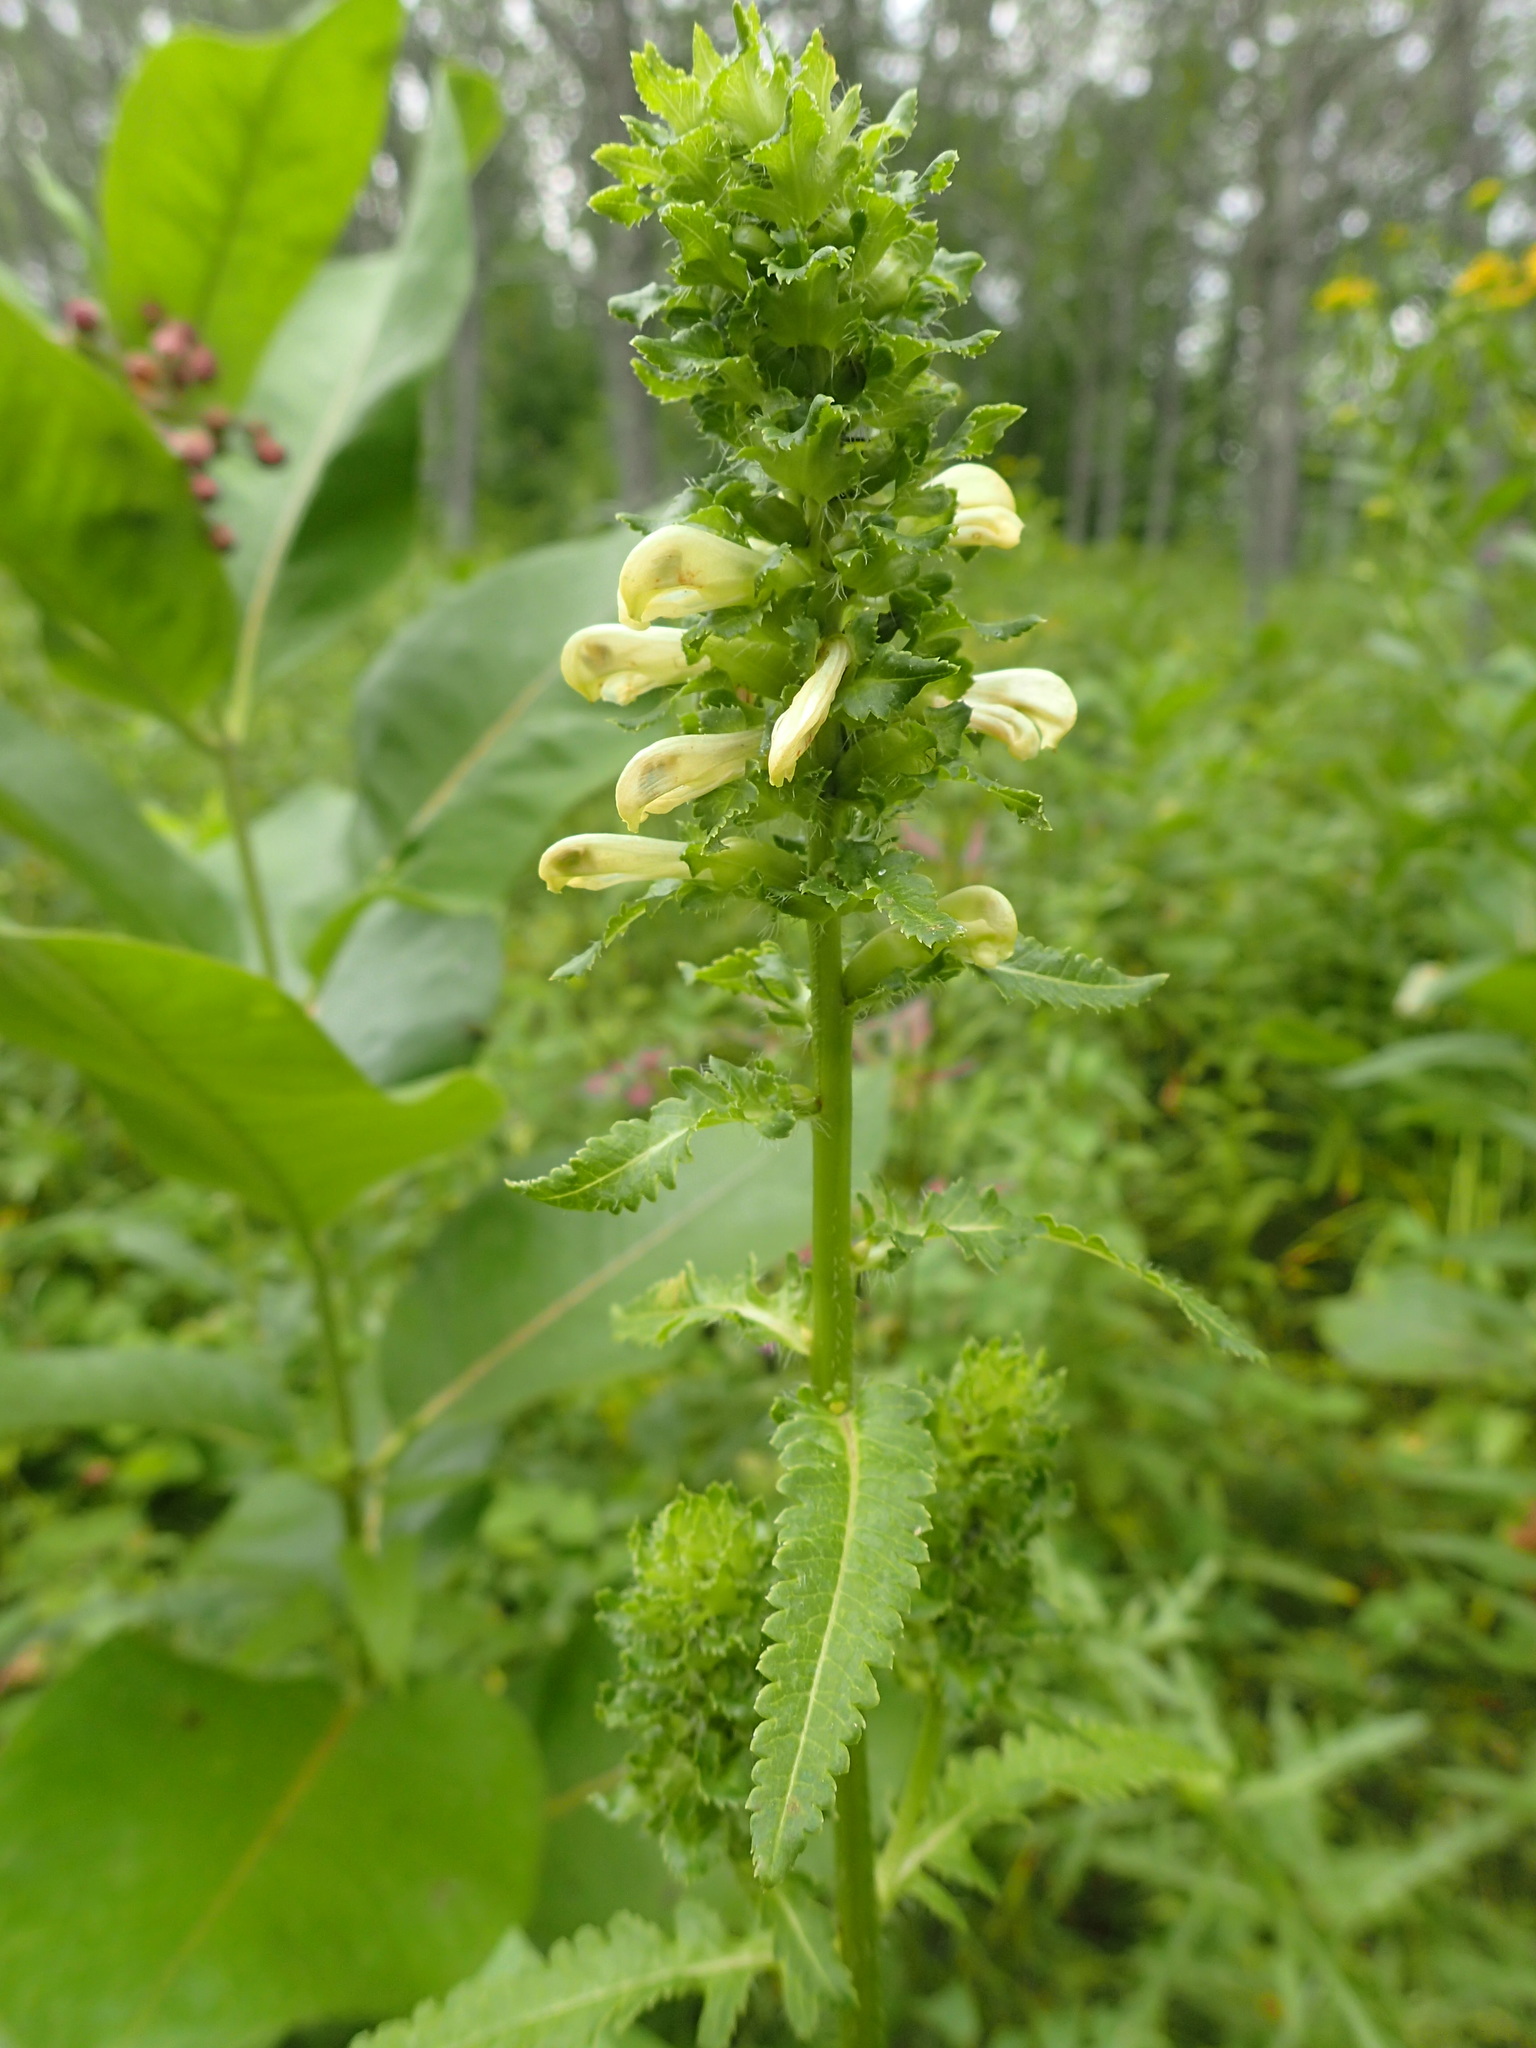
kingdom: Plantae
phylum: Tracheophyta
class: Magnoliopsida
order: Lamiales
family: Orobanchaceae
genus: Pedicularis
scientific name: Pedicularis lanceolata
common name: Swamp lousewort
